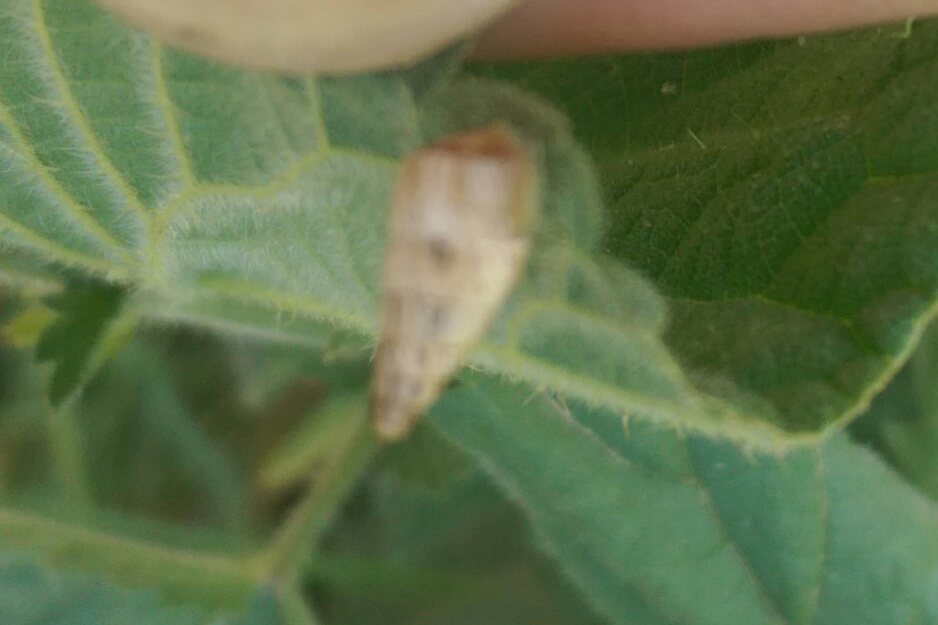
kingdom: Animalia
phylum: Mollusca
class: Gastropoda
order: Stylommatophora
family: Geomitridae
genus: Cochlicella
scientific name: Cochlicella acuta
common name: Pointed snail
